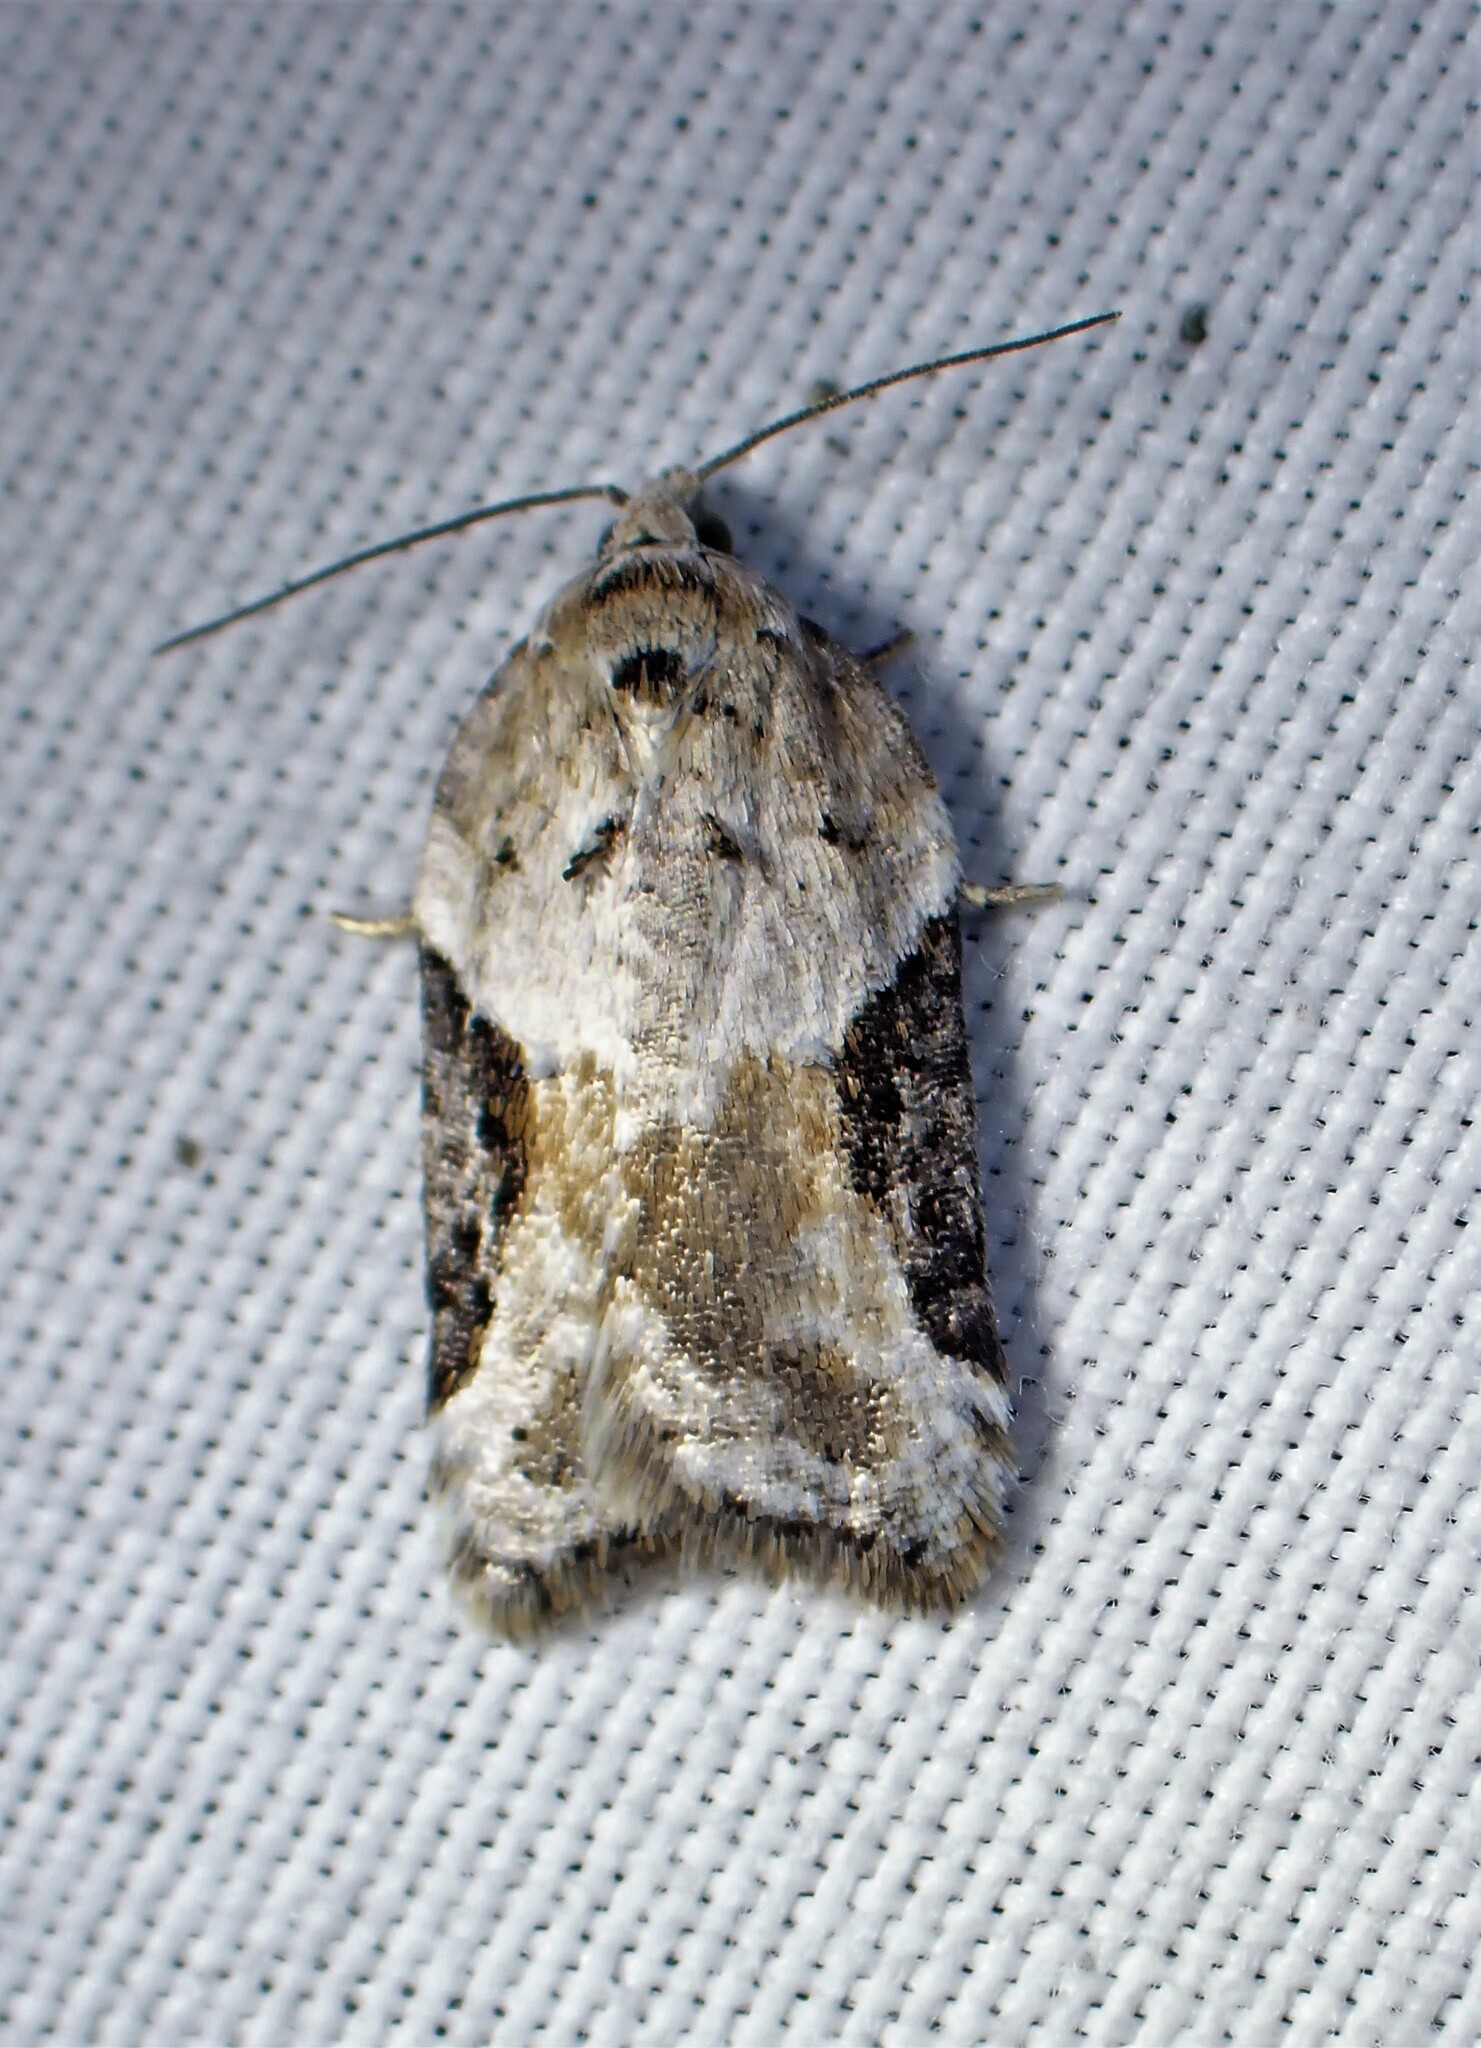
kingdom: Animalia
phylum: Arthropoda
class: Insecta
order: Lepidoptera
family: Tortricidae
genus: Acleris
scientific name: Acleris forbesana
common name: Forbes' acleris moth
